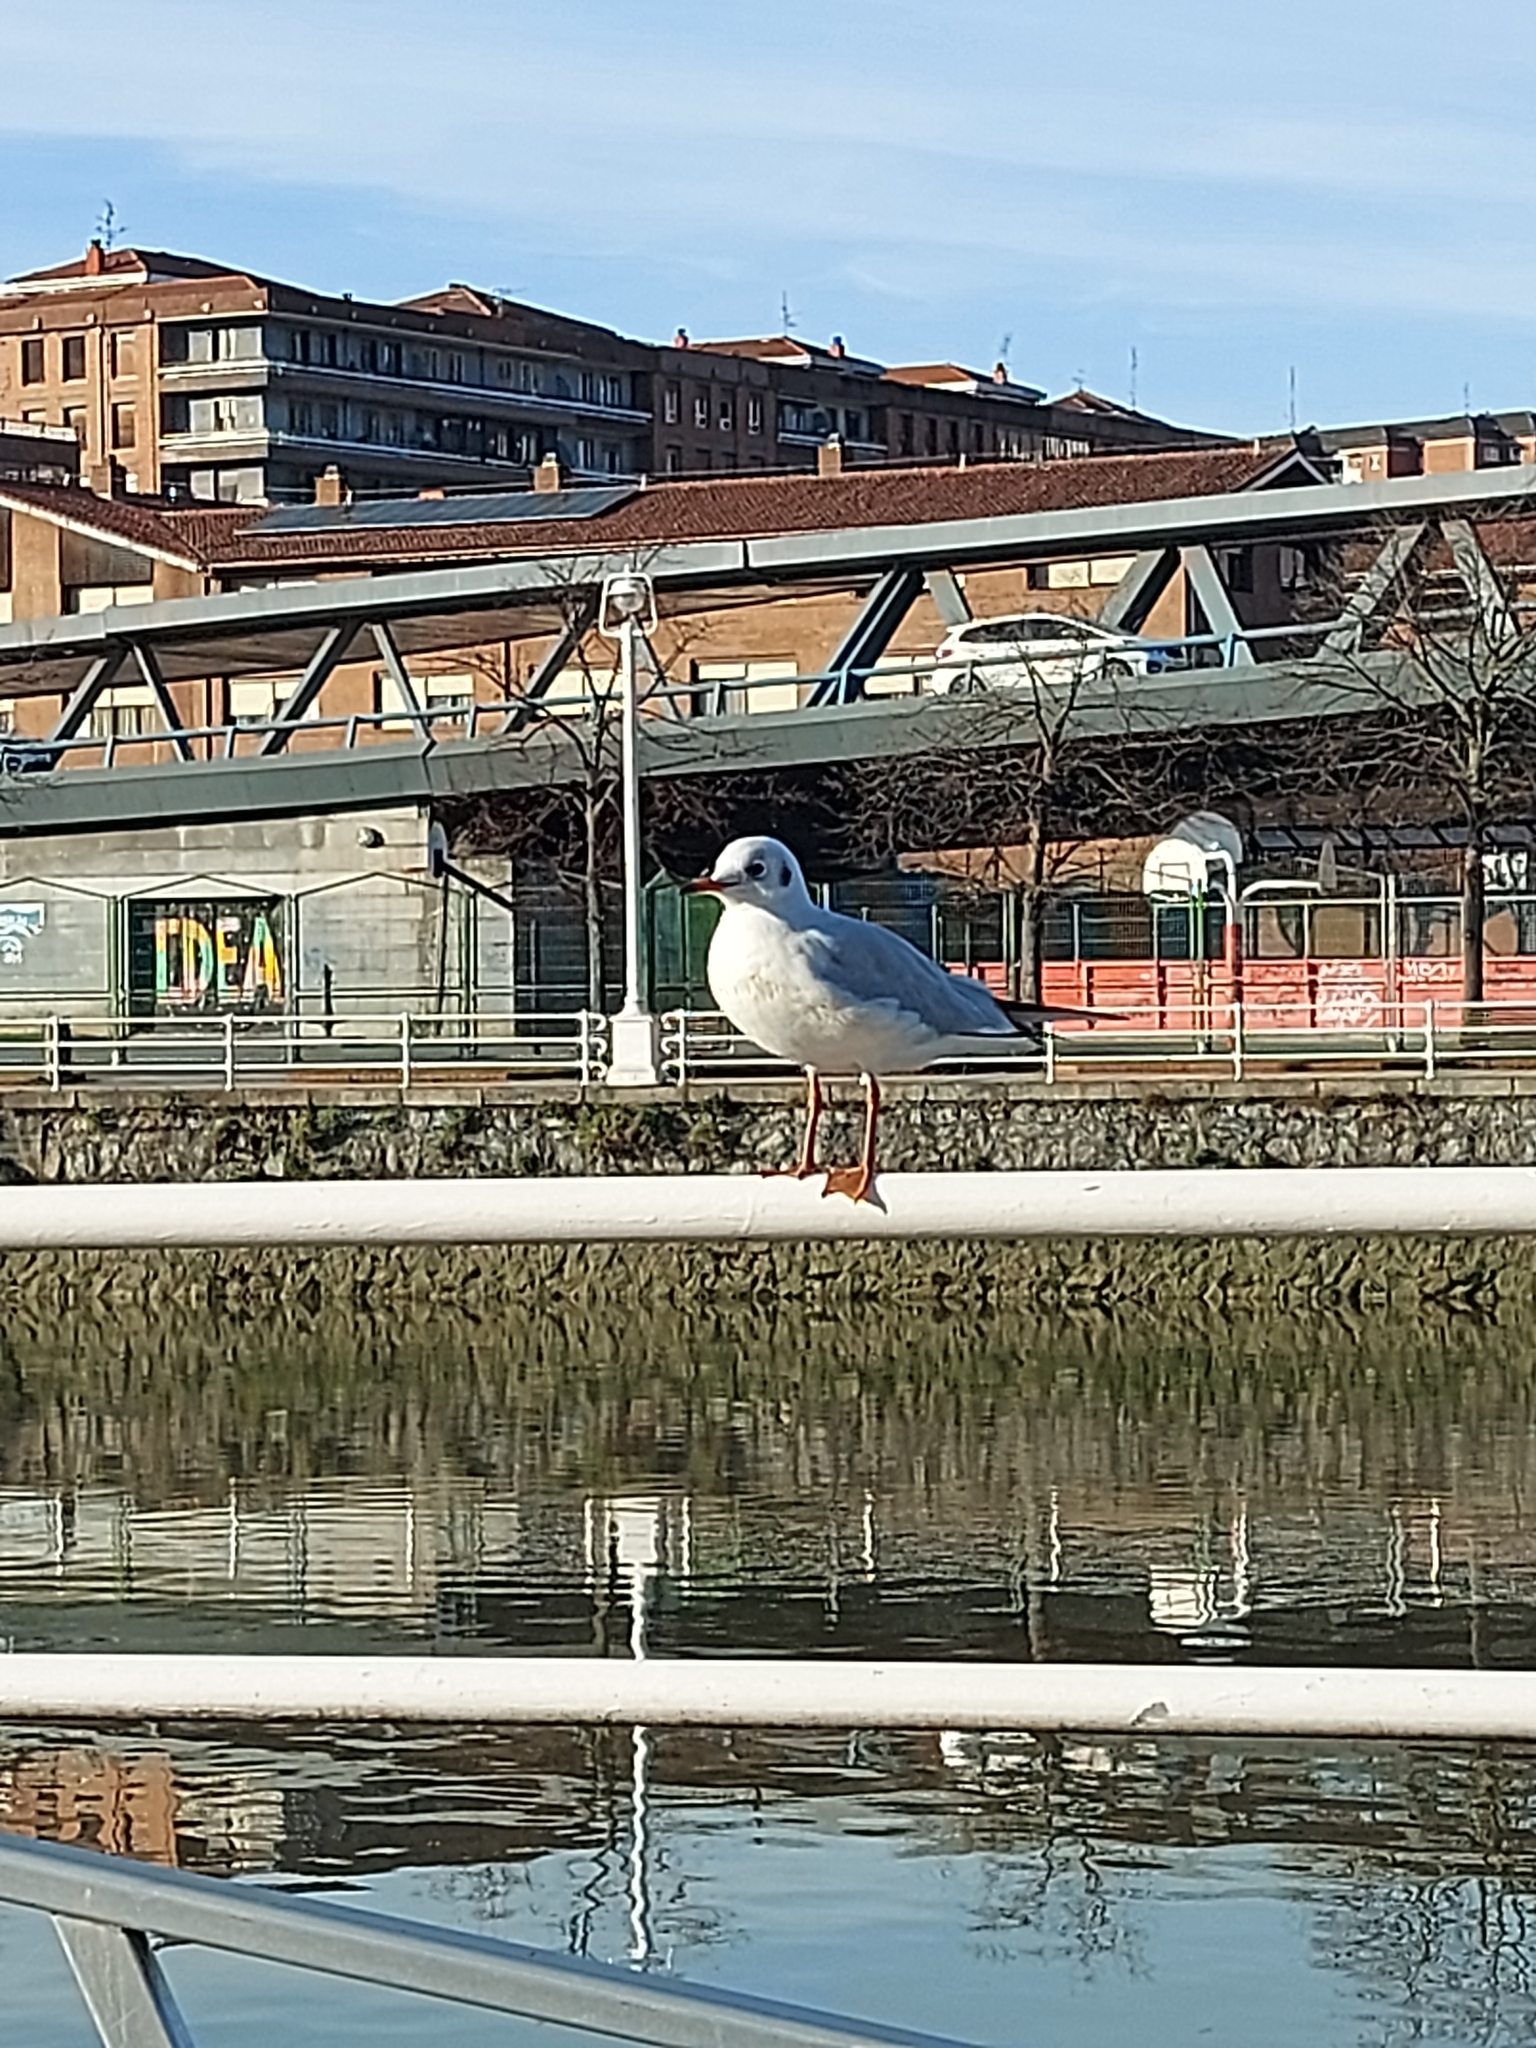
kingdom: Animalia
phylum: Chordata
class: Aves
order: Charadriiformes
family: Laridae
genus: Chroicocephalus
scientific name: Chroicocephalus ridibundus
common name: Black-headed gull
